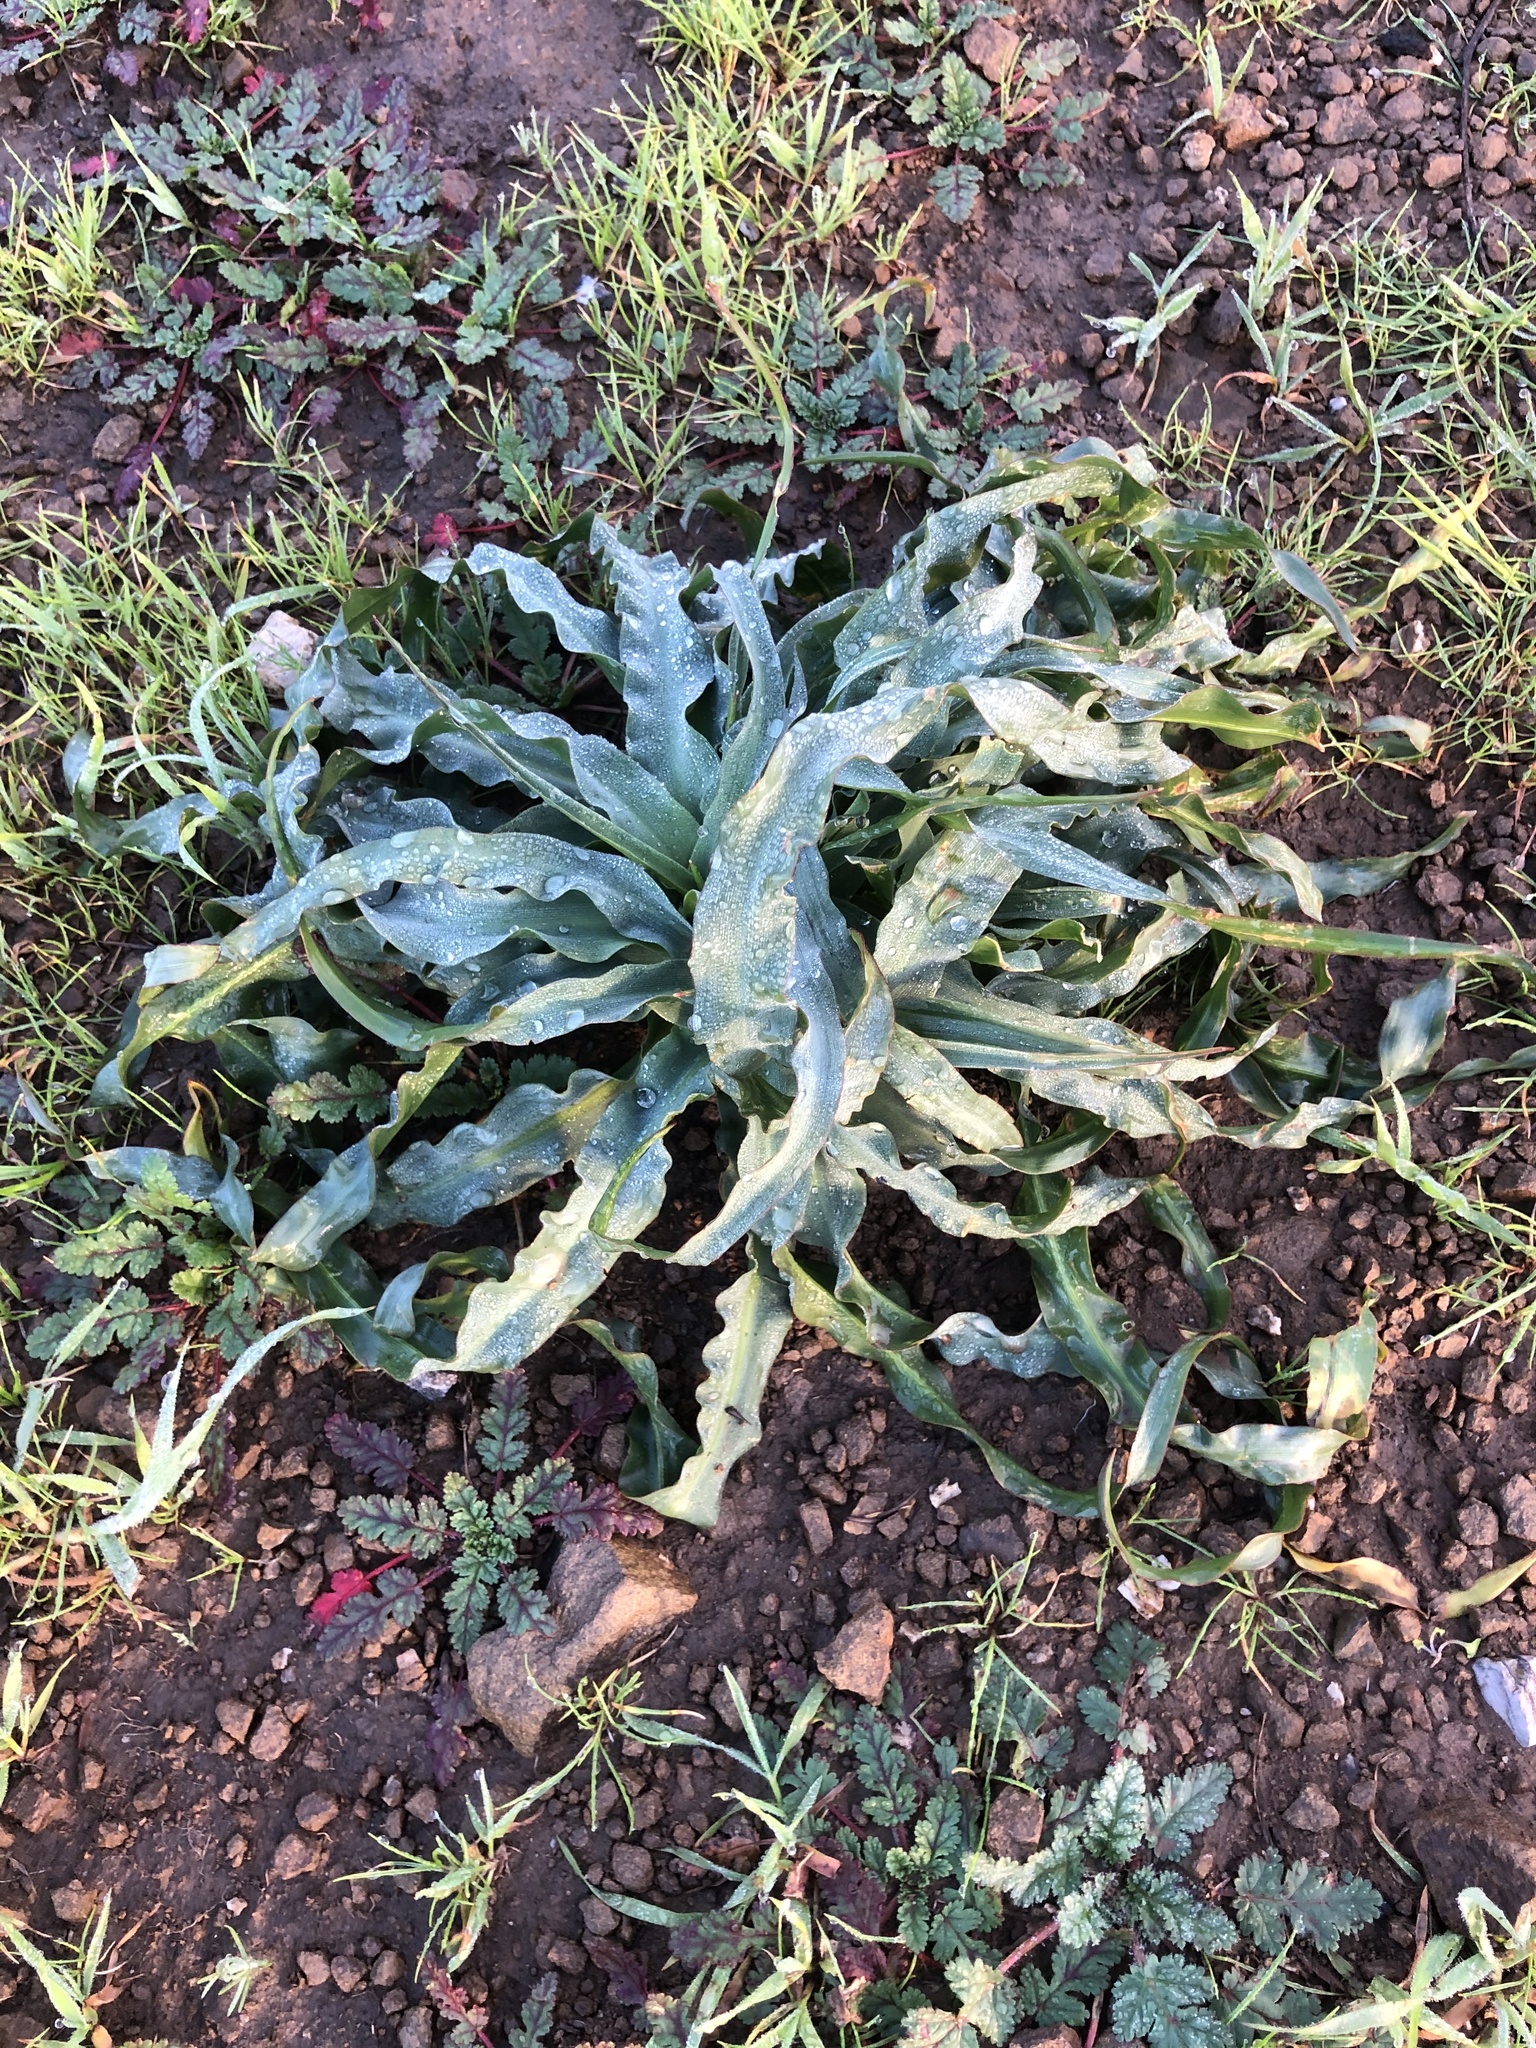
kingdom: Plantae
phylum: Tracheophyta
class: Liliopsida
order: Asparagales
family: Asparagaceae
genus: Chlorogalum
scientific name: Chlorogalum pomeridianum
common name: Amole
